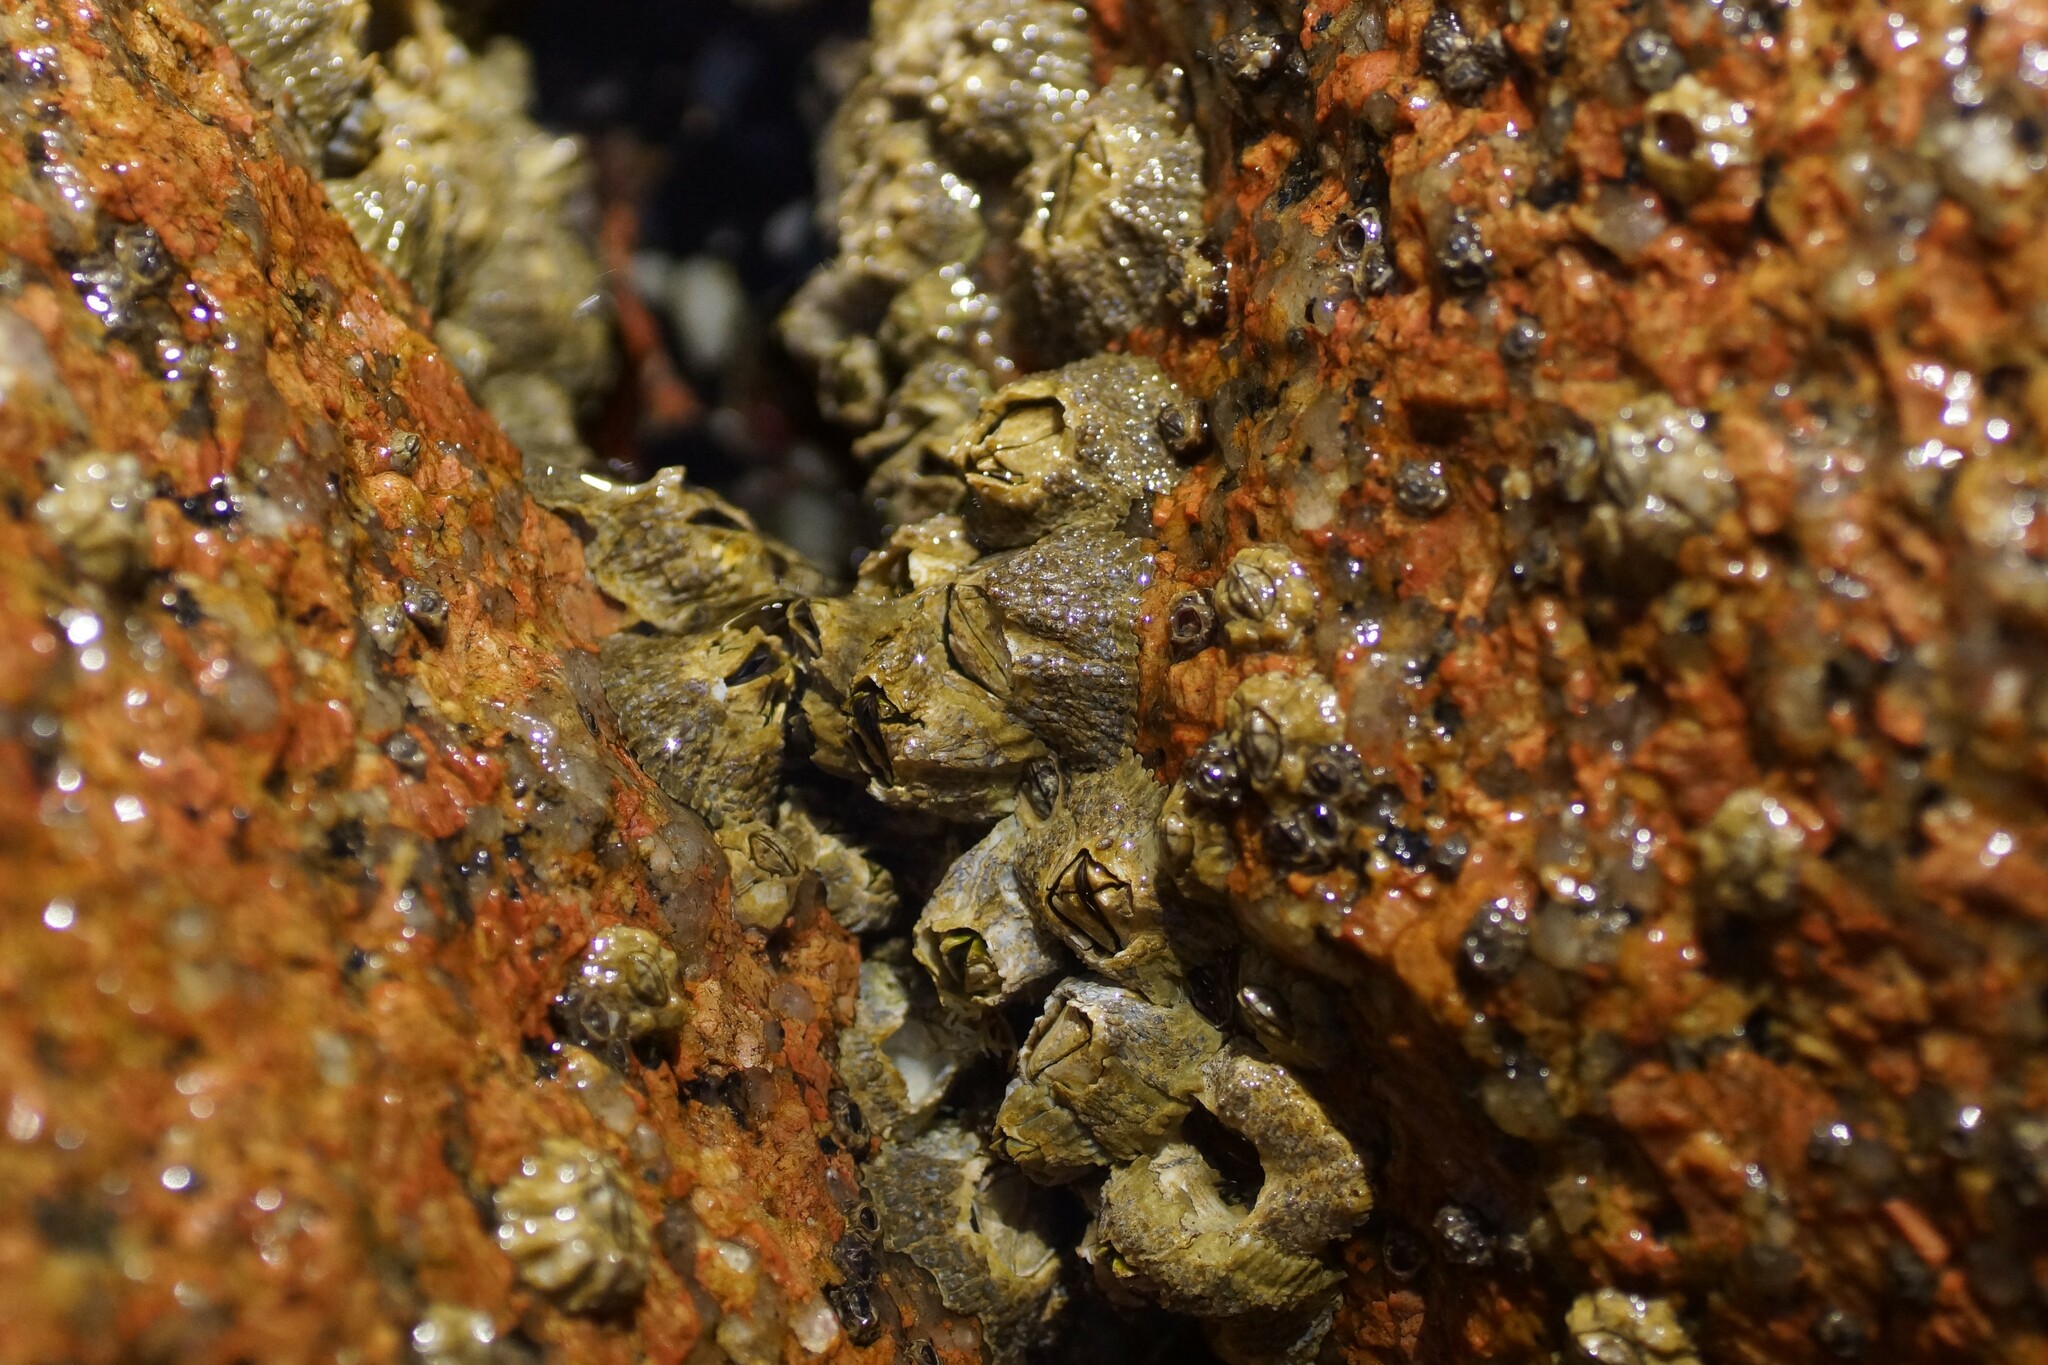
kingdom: Animalia
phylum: Arthropoda
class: Maxillopoda
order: Sessilia
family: Tetraclitidae
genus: Tetraclitella
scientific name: Tetraclitella purpurascens
